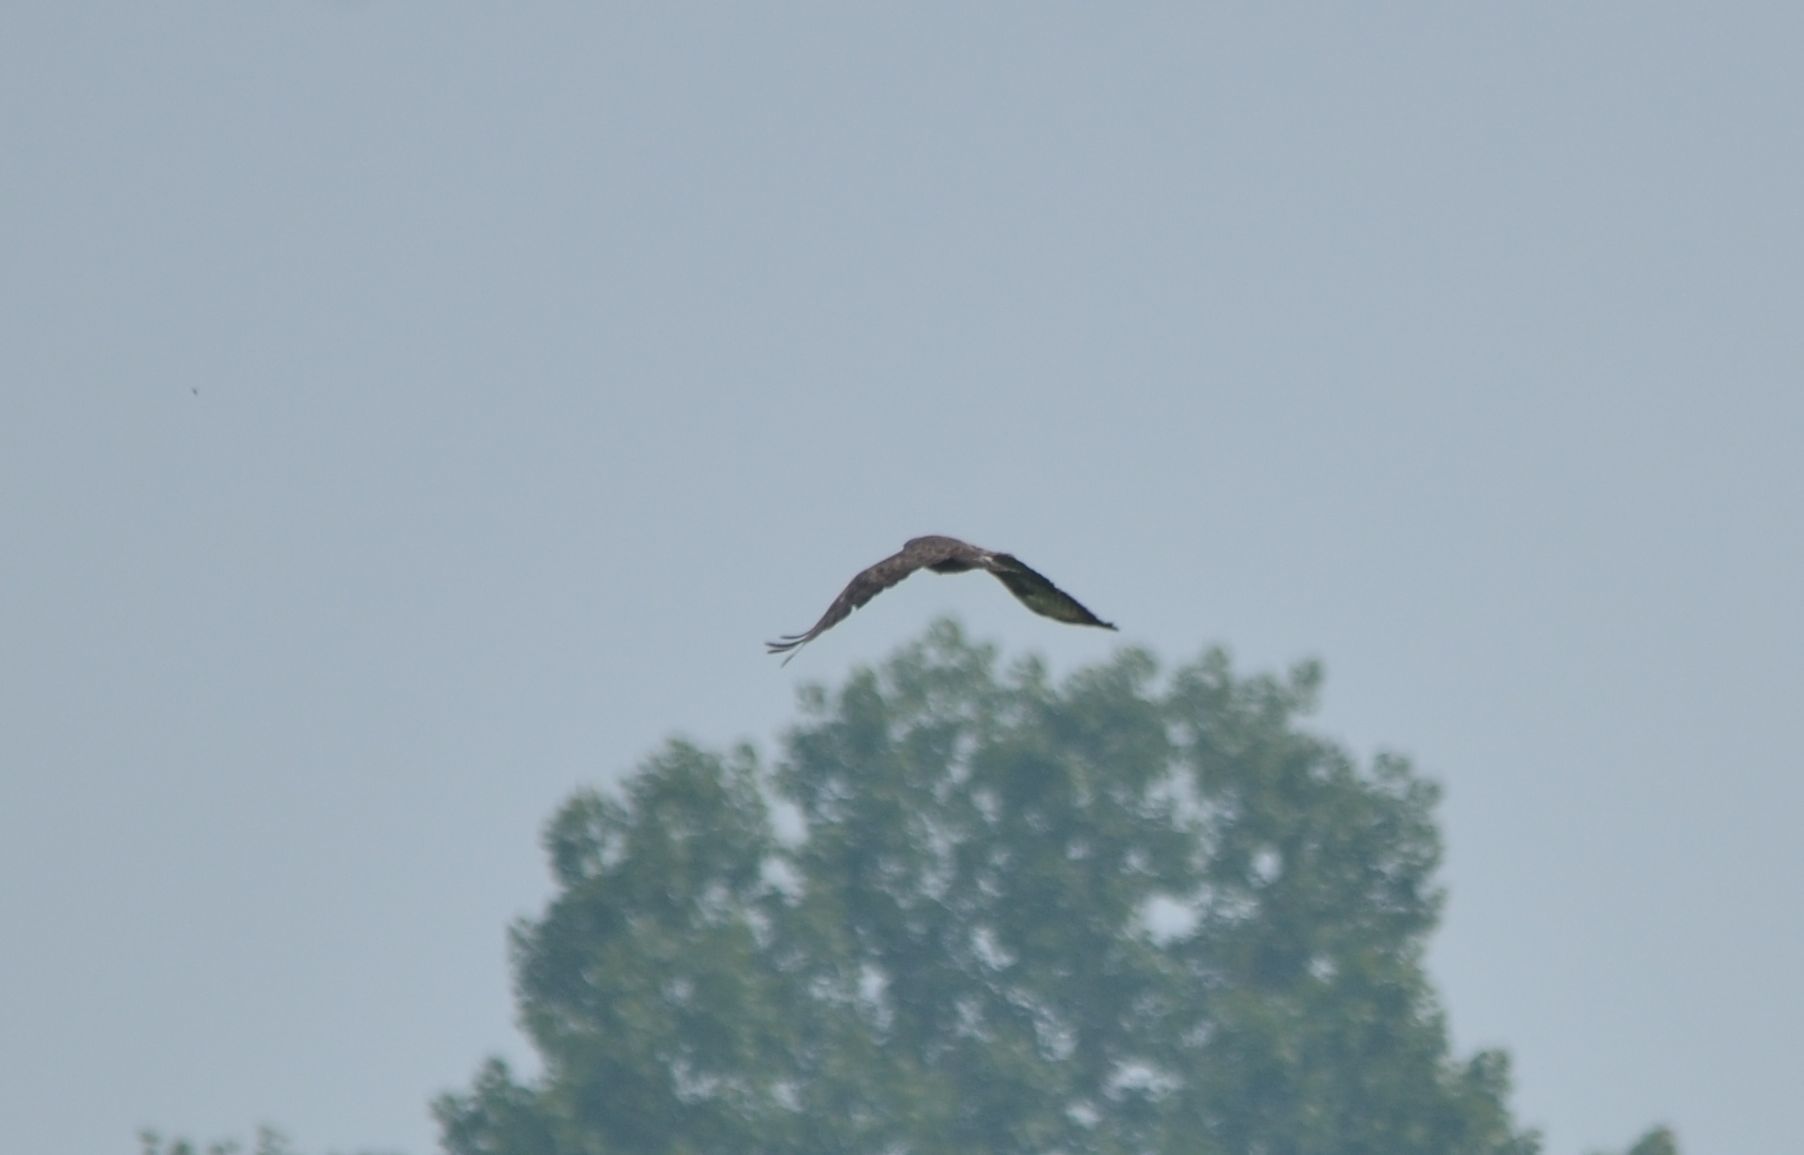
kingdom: Animalia
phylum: Chordata
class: Aves
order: Accipitriformes
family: Accipitridae
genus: Buteo
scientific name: Buteo buteo
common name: Common buzzard
